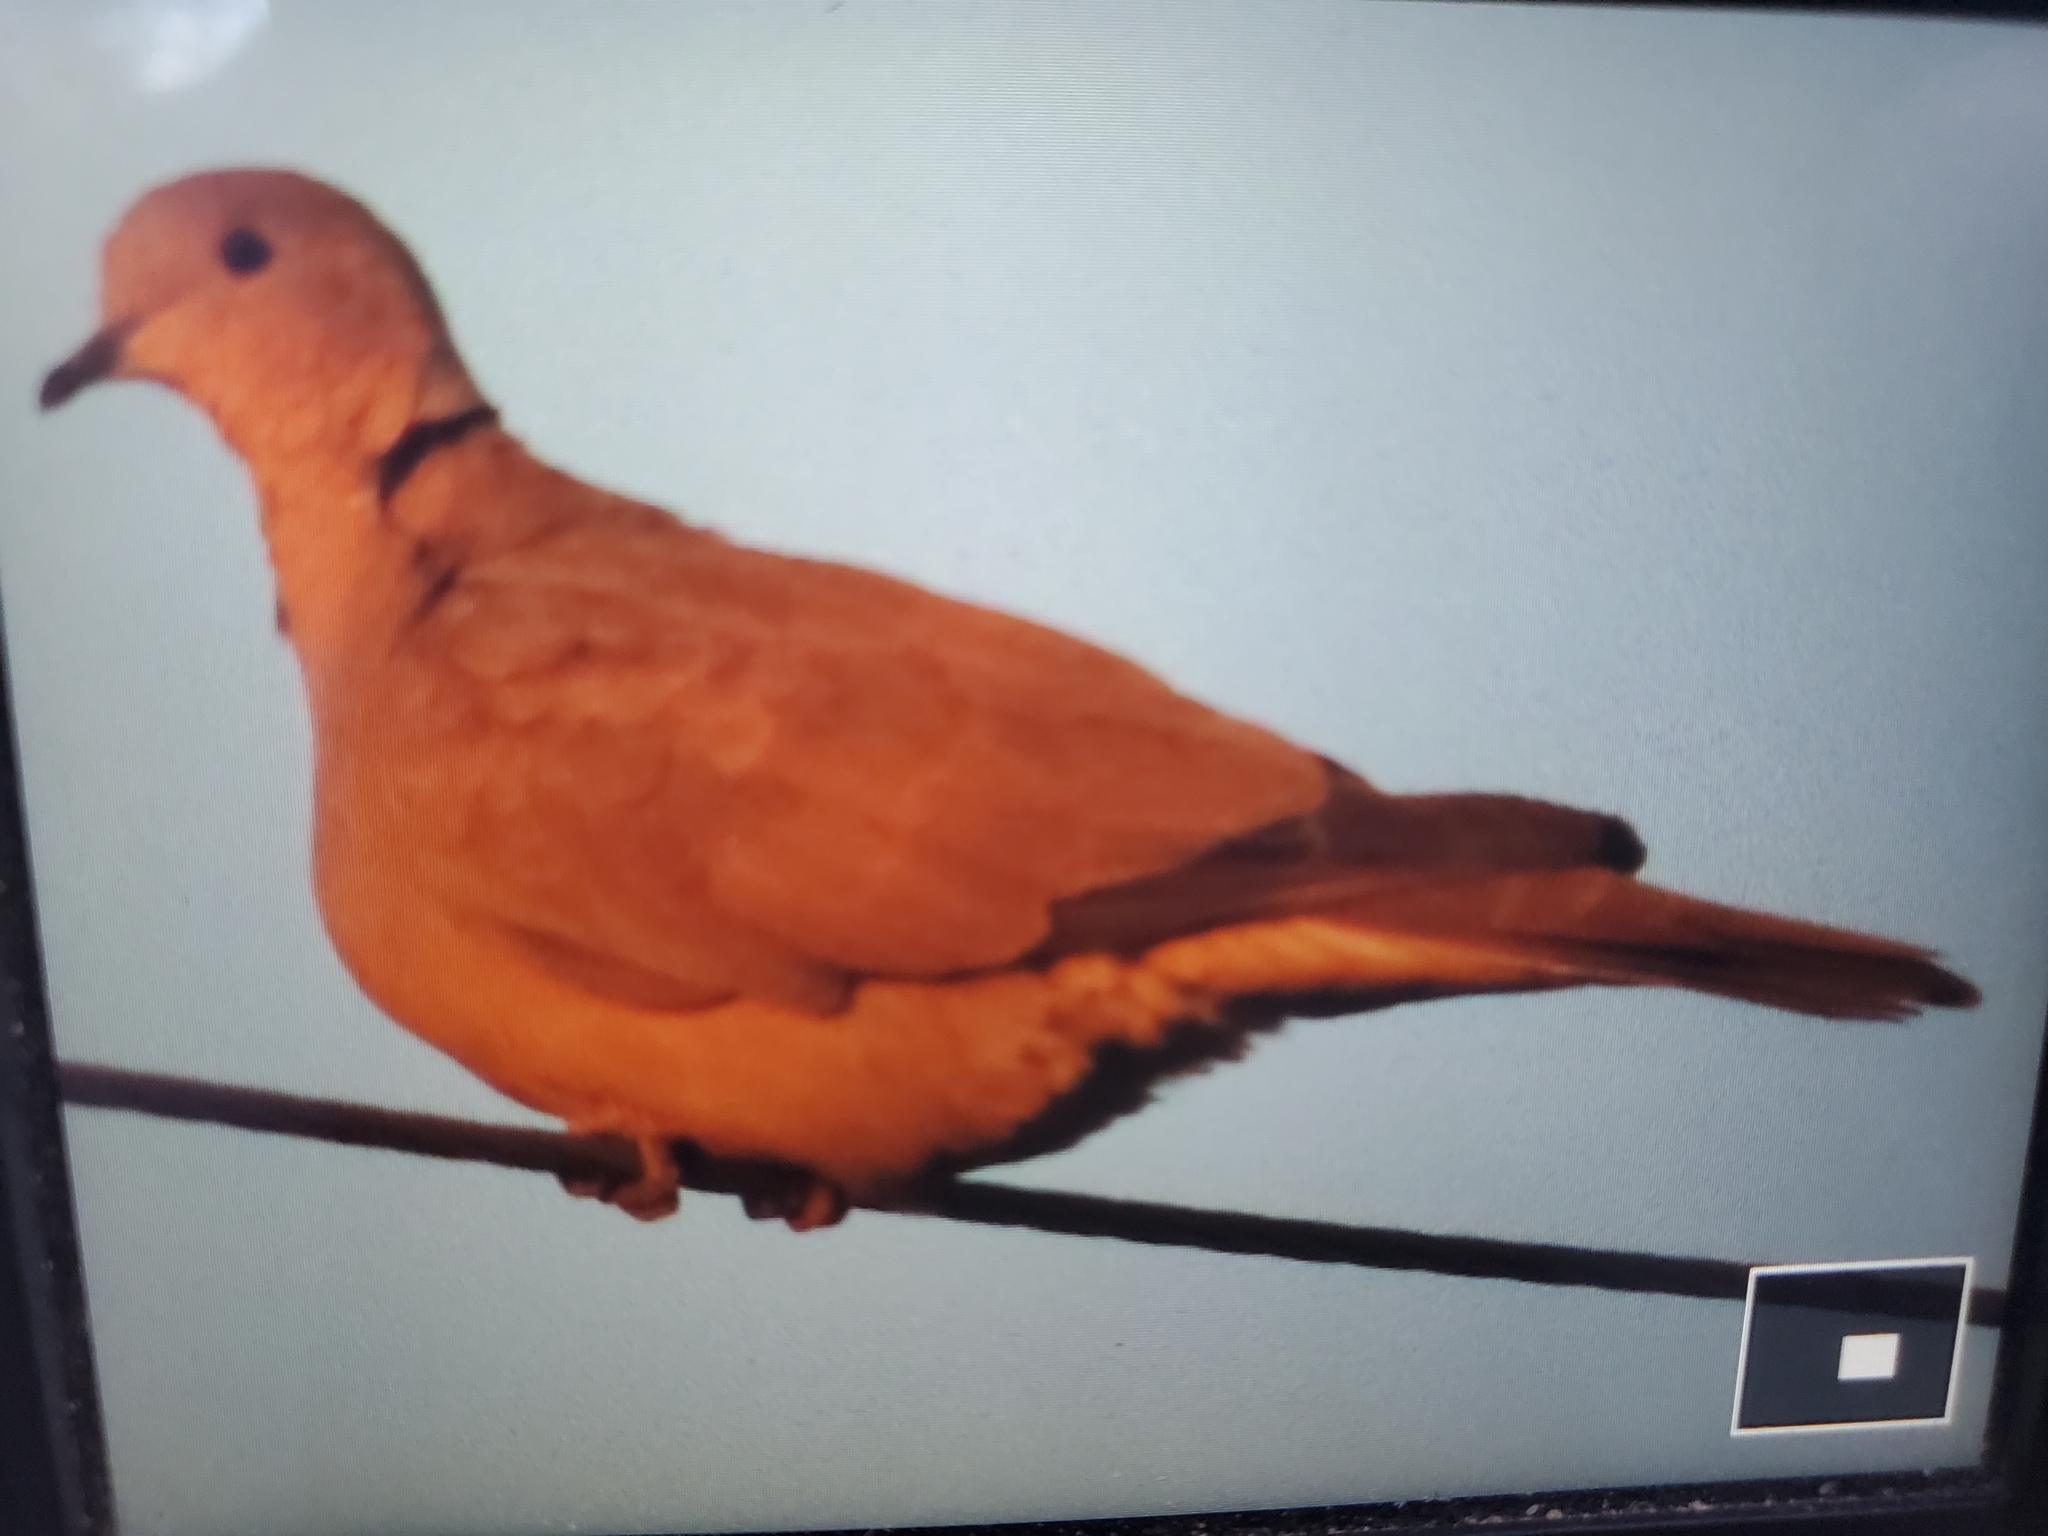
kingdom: Animalia
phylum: Chordata
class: Aves
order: Columbiformes
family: Columbidae
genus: Streptopelia
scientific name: Streptopelia decaocto
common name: Eurasian collared dove
